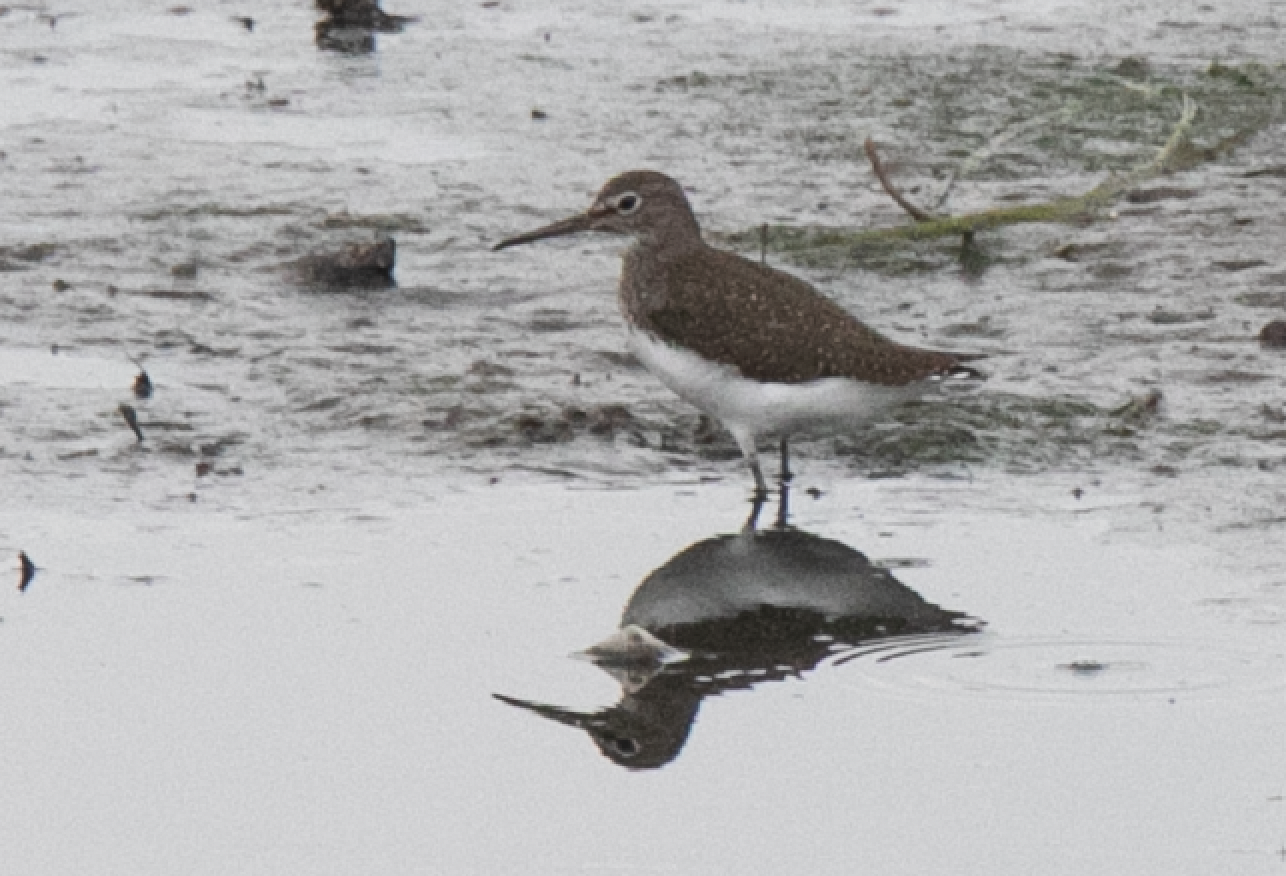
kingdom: Animalia
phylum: Chordata
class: Aves
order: Charadriiformes
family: Scolopacidae
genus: Tringa
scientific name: Tringa ochropus
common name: Green sandpiper
